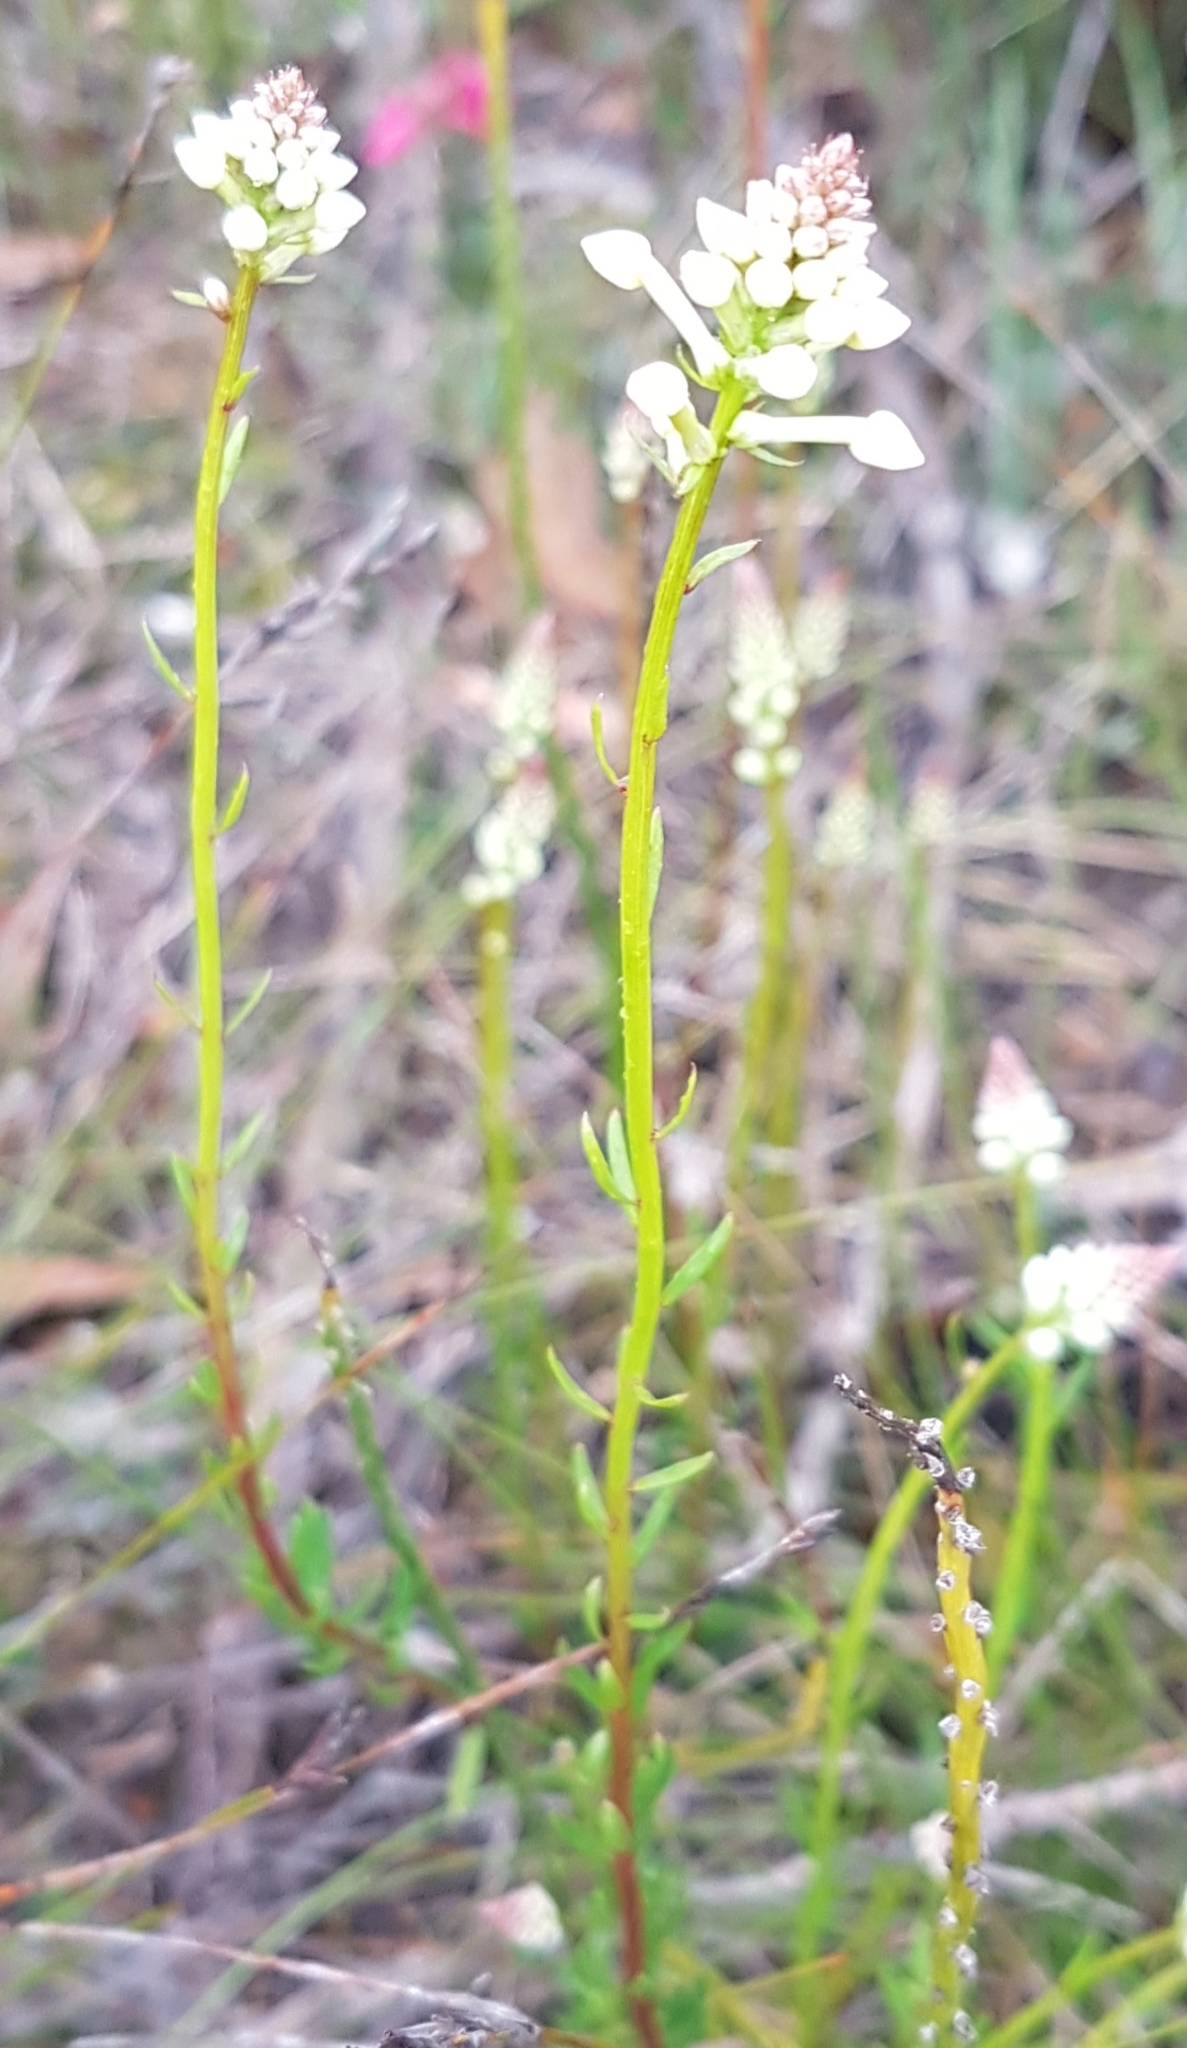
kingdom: Plantae
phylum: Tracheophyta
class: Magnoliopsida
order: Celastrales
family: Celastraceae
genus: Stackhousia
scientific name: Stackhousia monogyna
